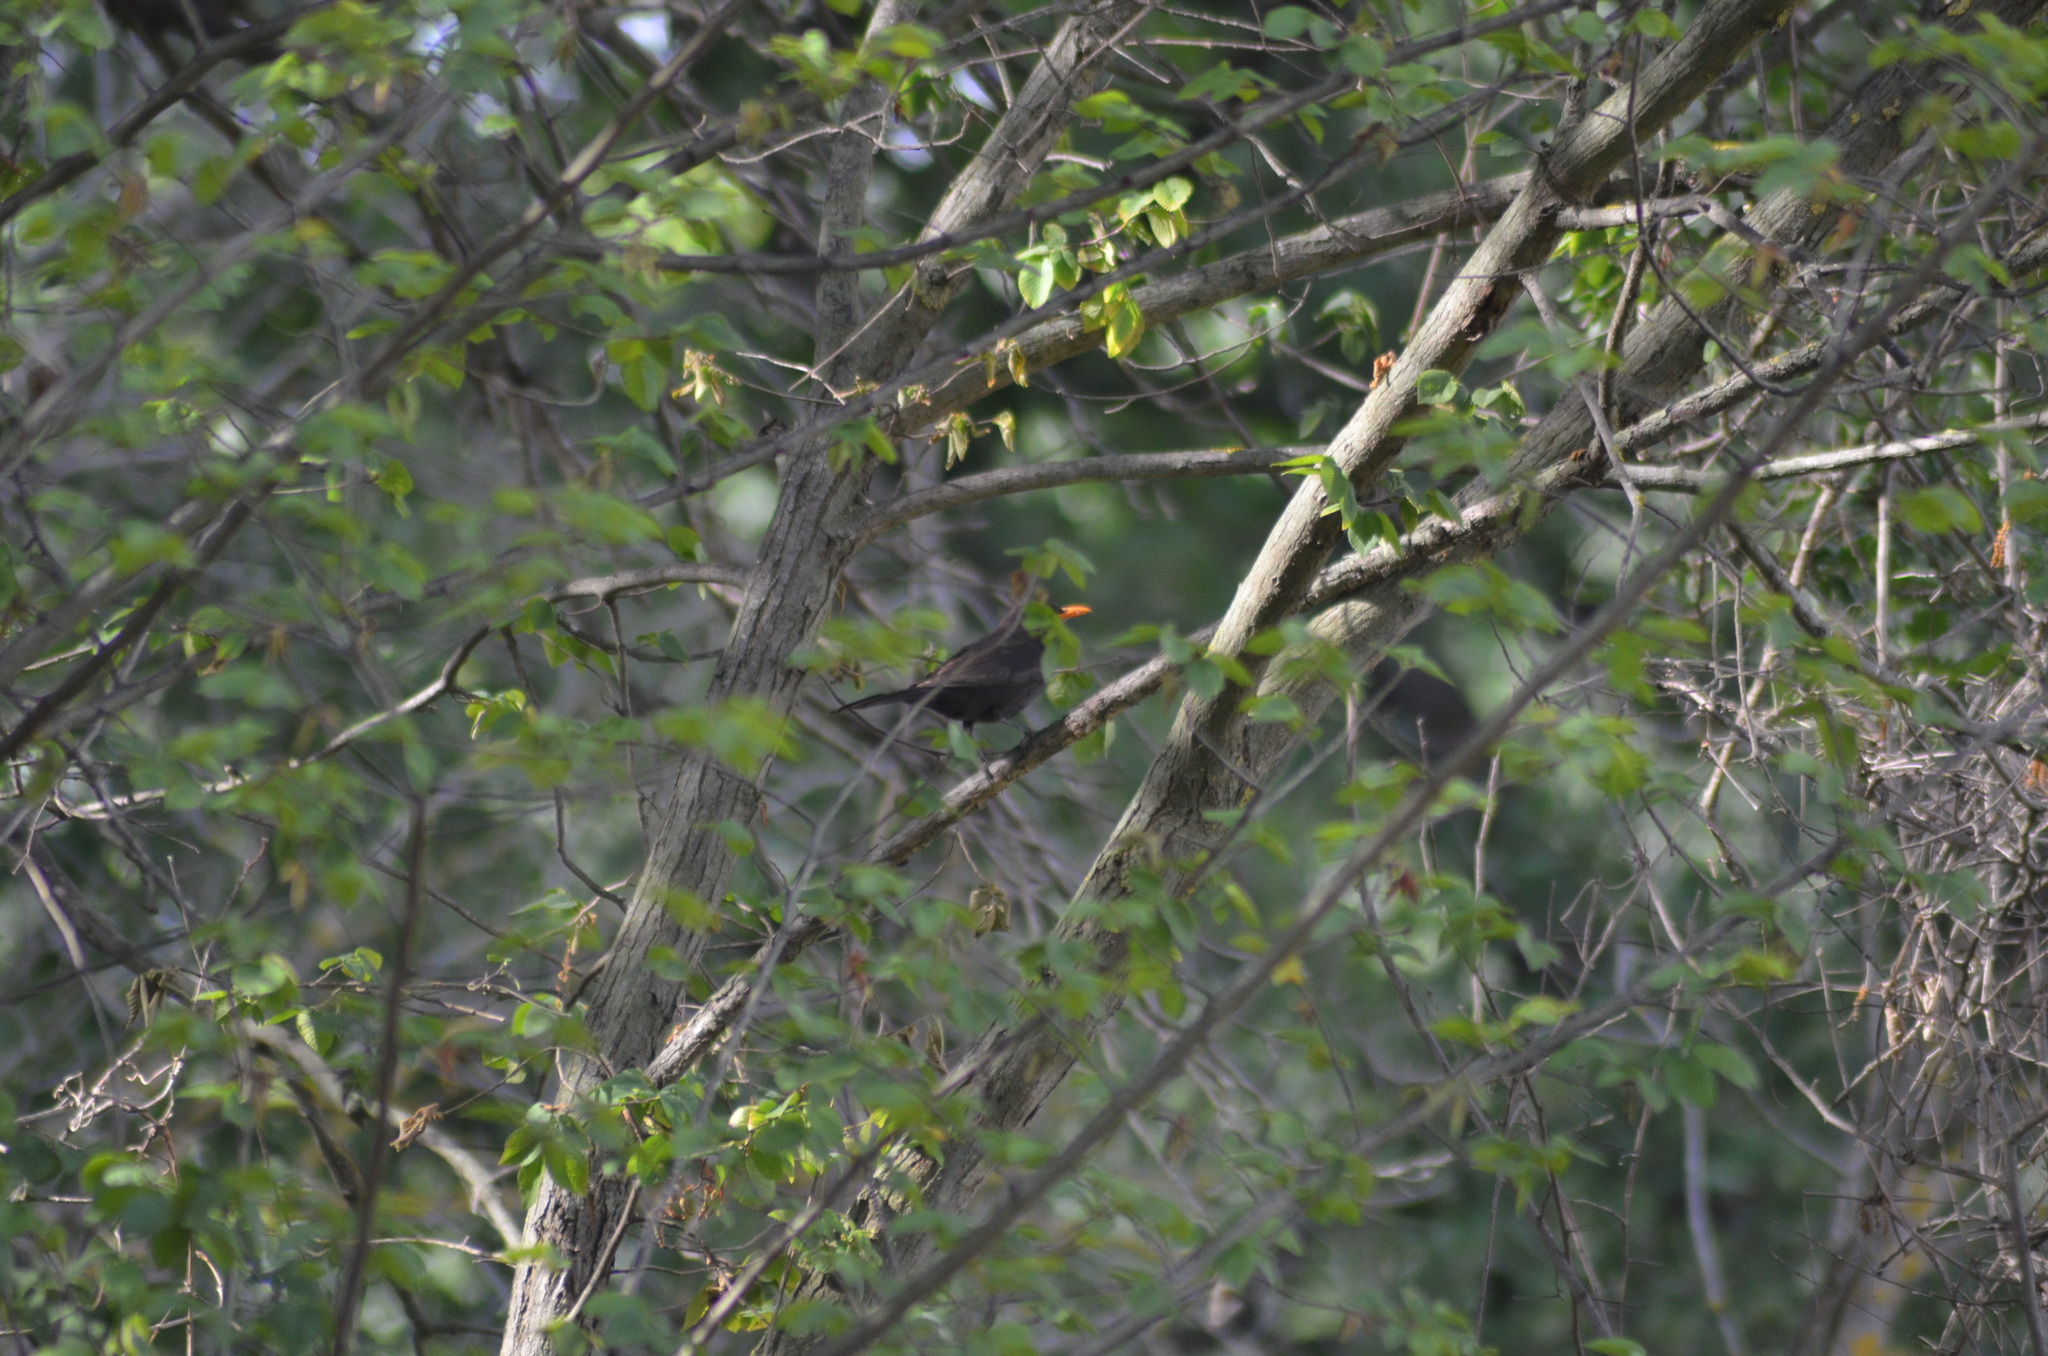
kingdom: Animalia
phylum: Chordata
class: Aves
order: Passeriformes
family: Turdidae
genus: Turdus
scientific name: Turdus merula
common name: Common blackbird
